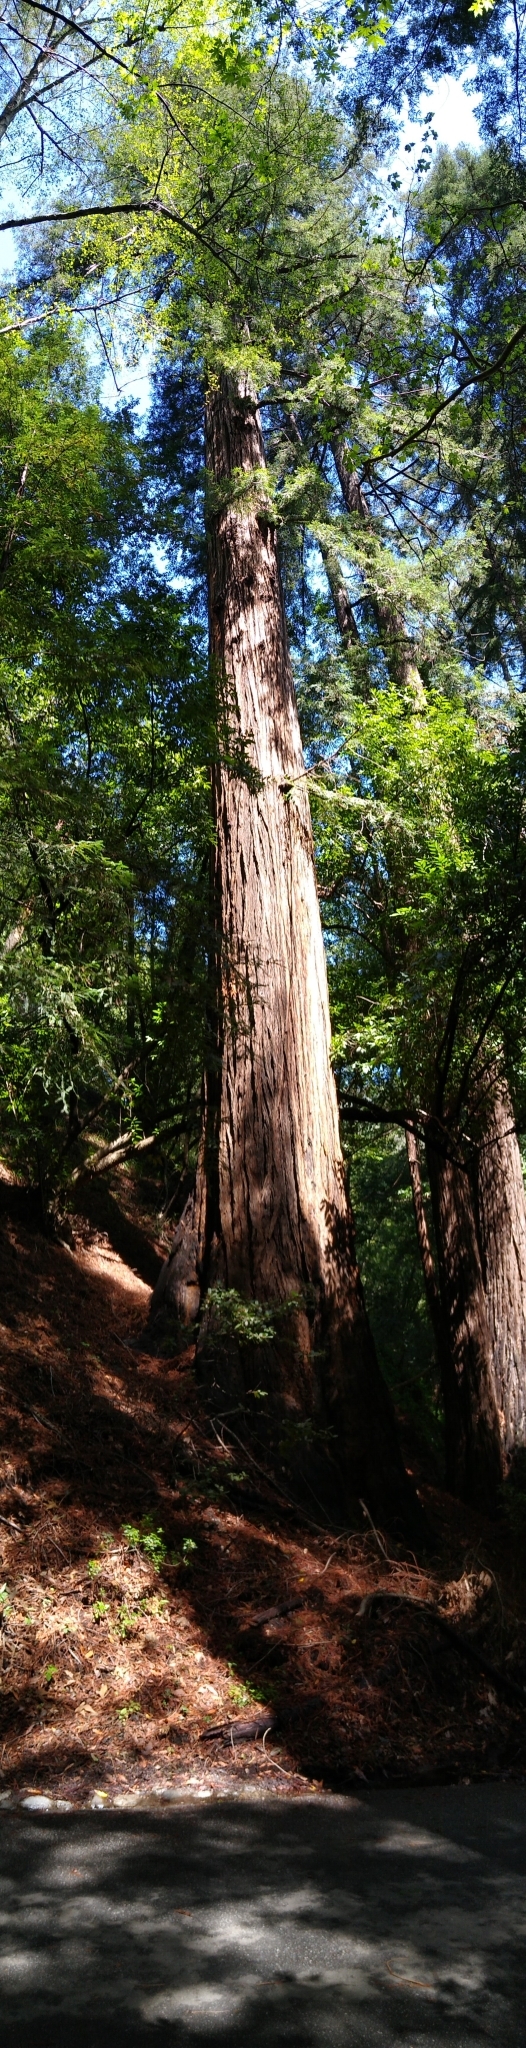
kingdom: Plantae
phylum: Tracheophyta
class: Pinopsida
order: Pinales
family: Cupressaceae
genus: Sequoia
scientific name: Sequoia sempervirens
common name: Coast redwood
